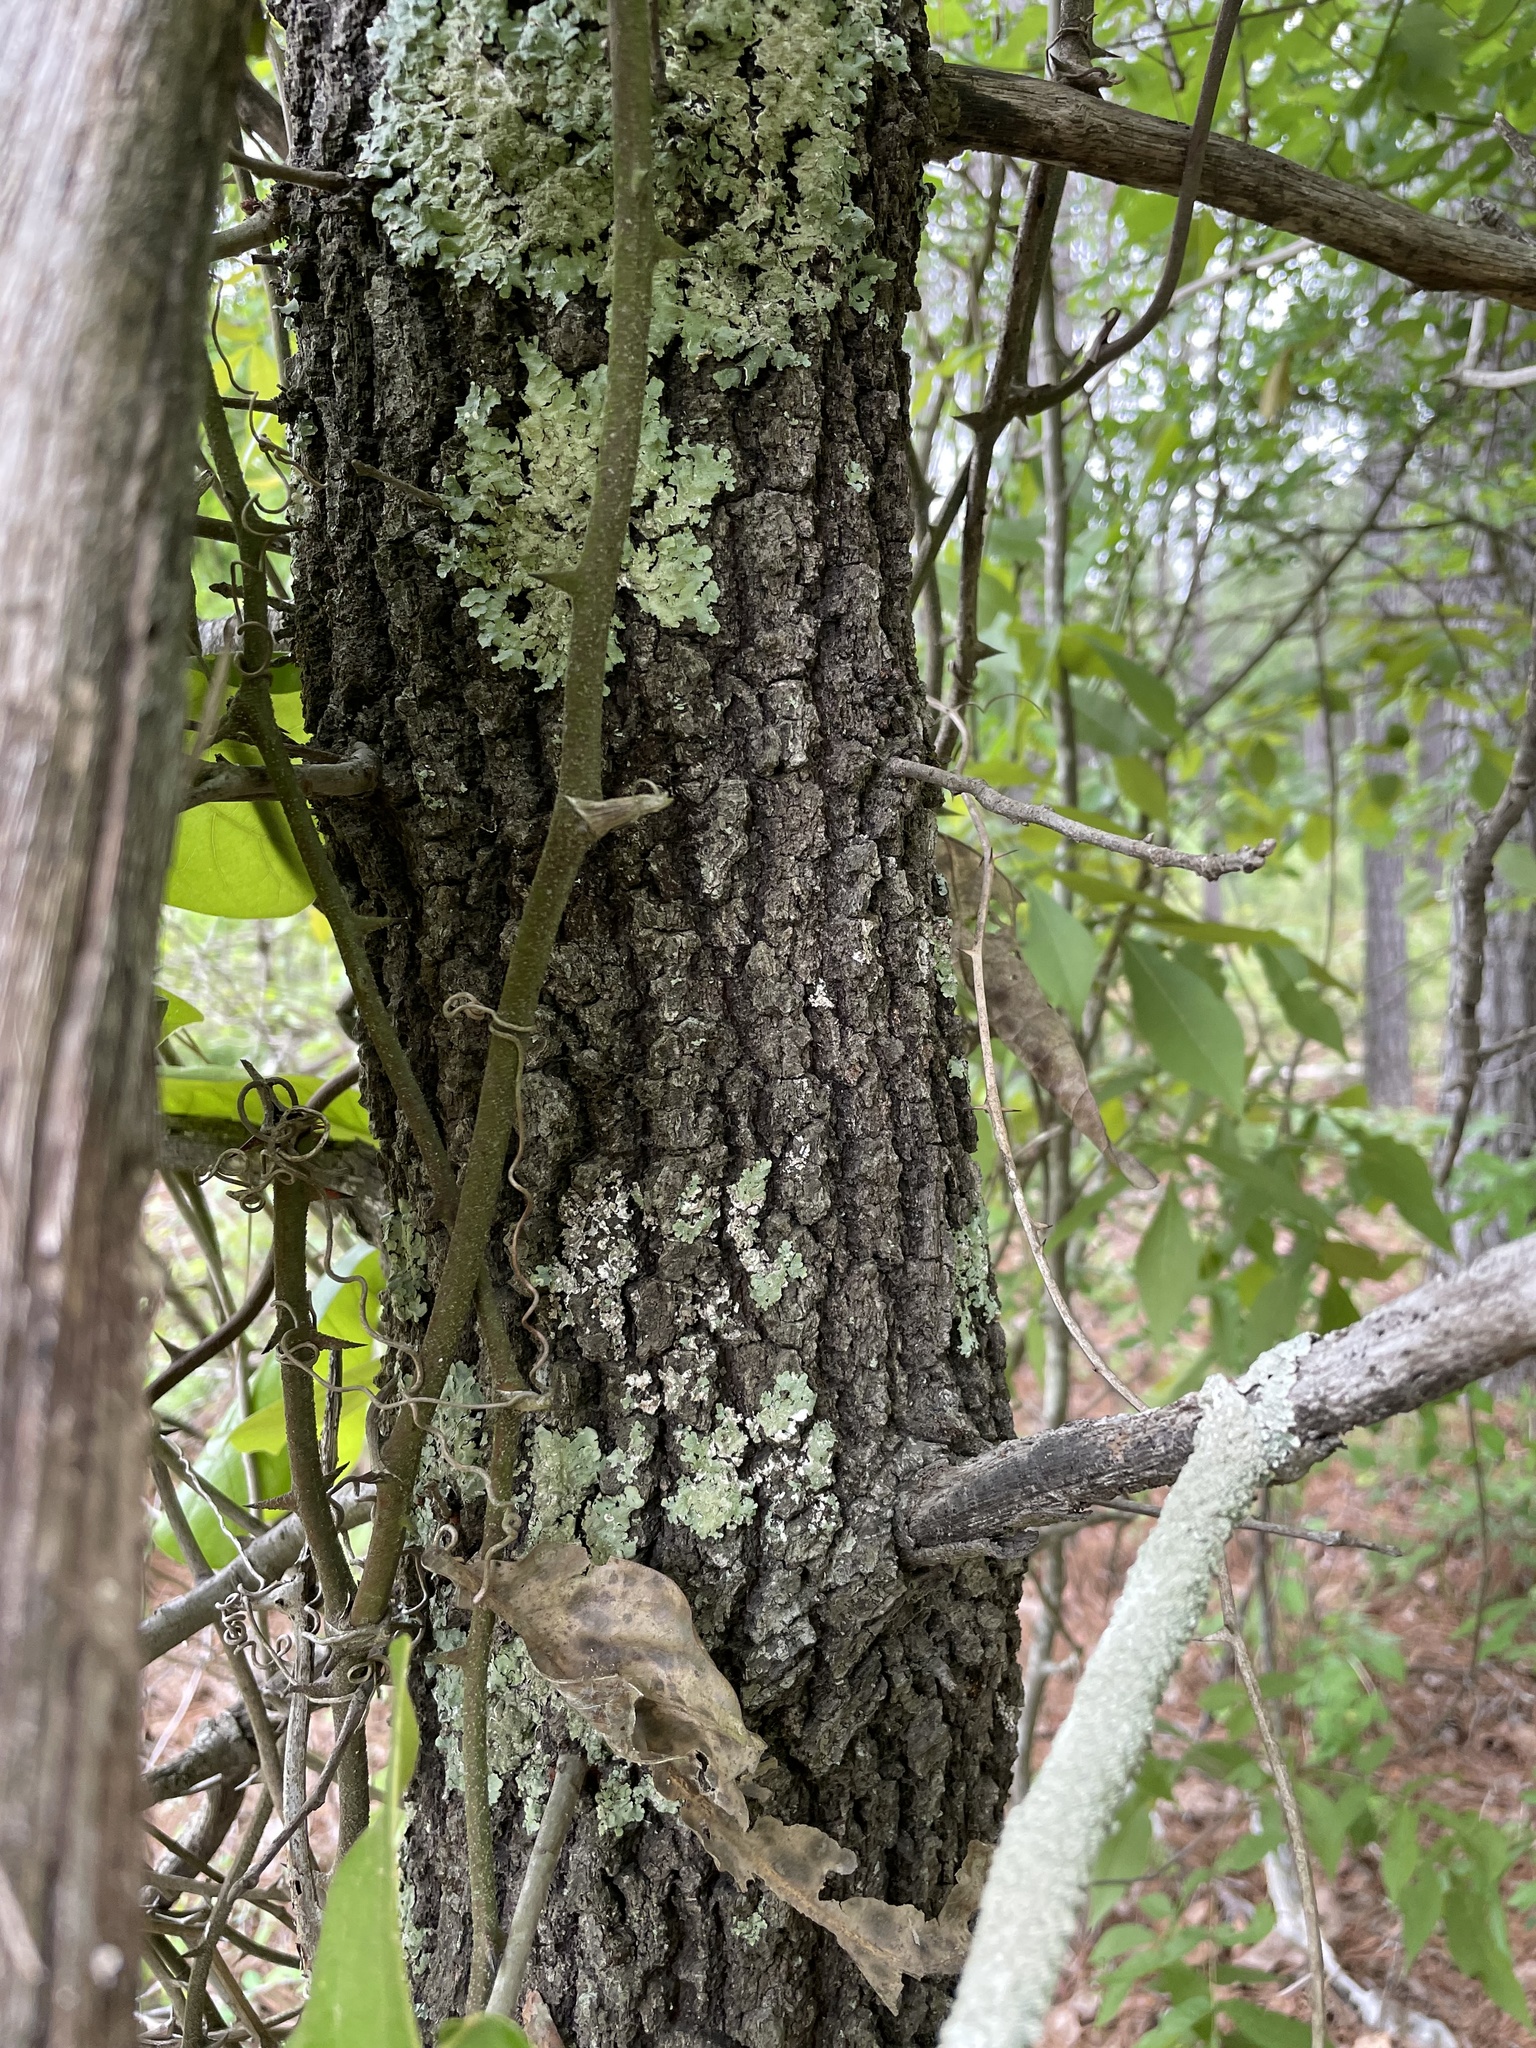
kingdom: Plantae
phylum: Tracheophyta
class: Magnoliopsida
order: Fagales
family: Fagaceae
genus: Quercus
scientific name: Quercus marilandica
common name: Blackjack oak
